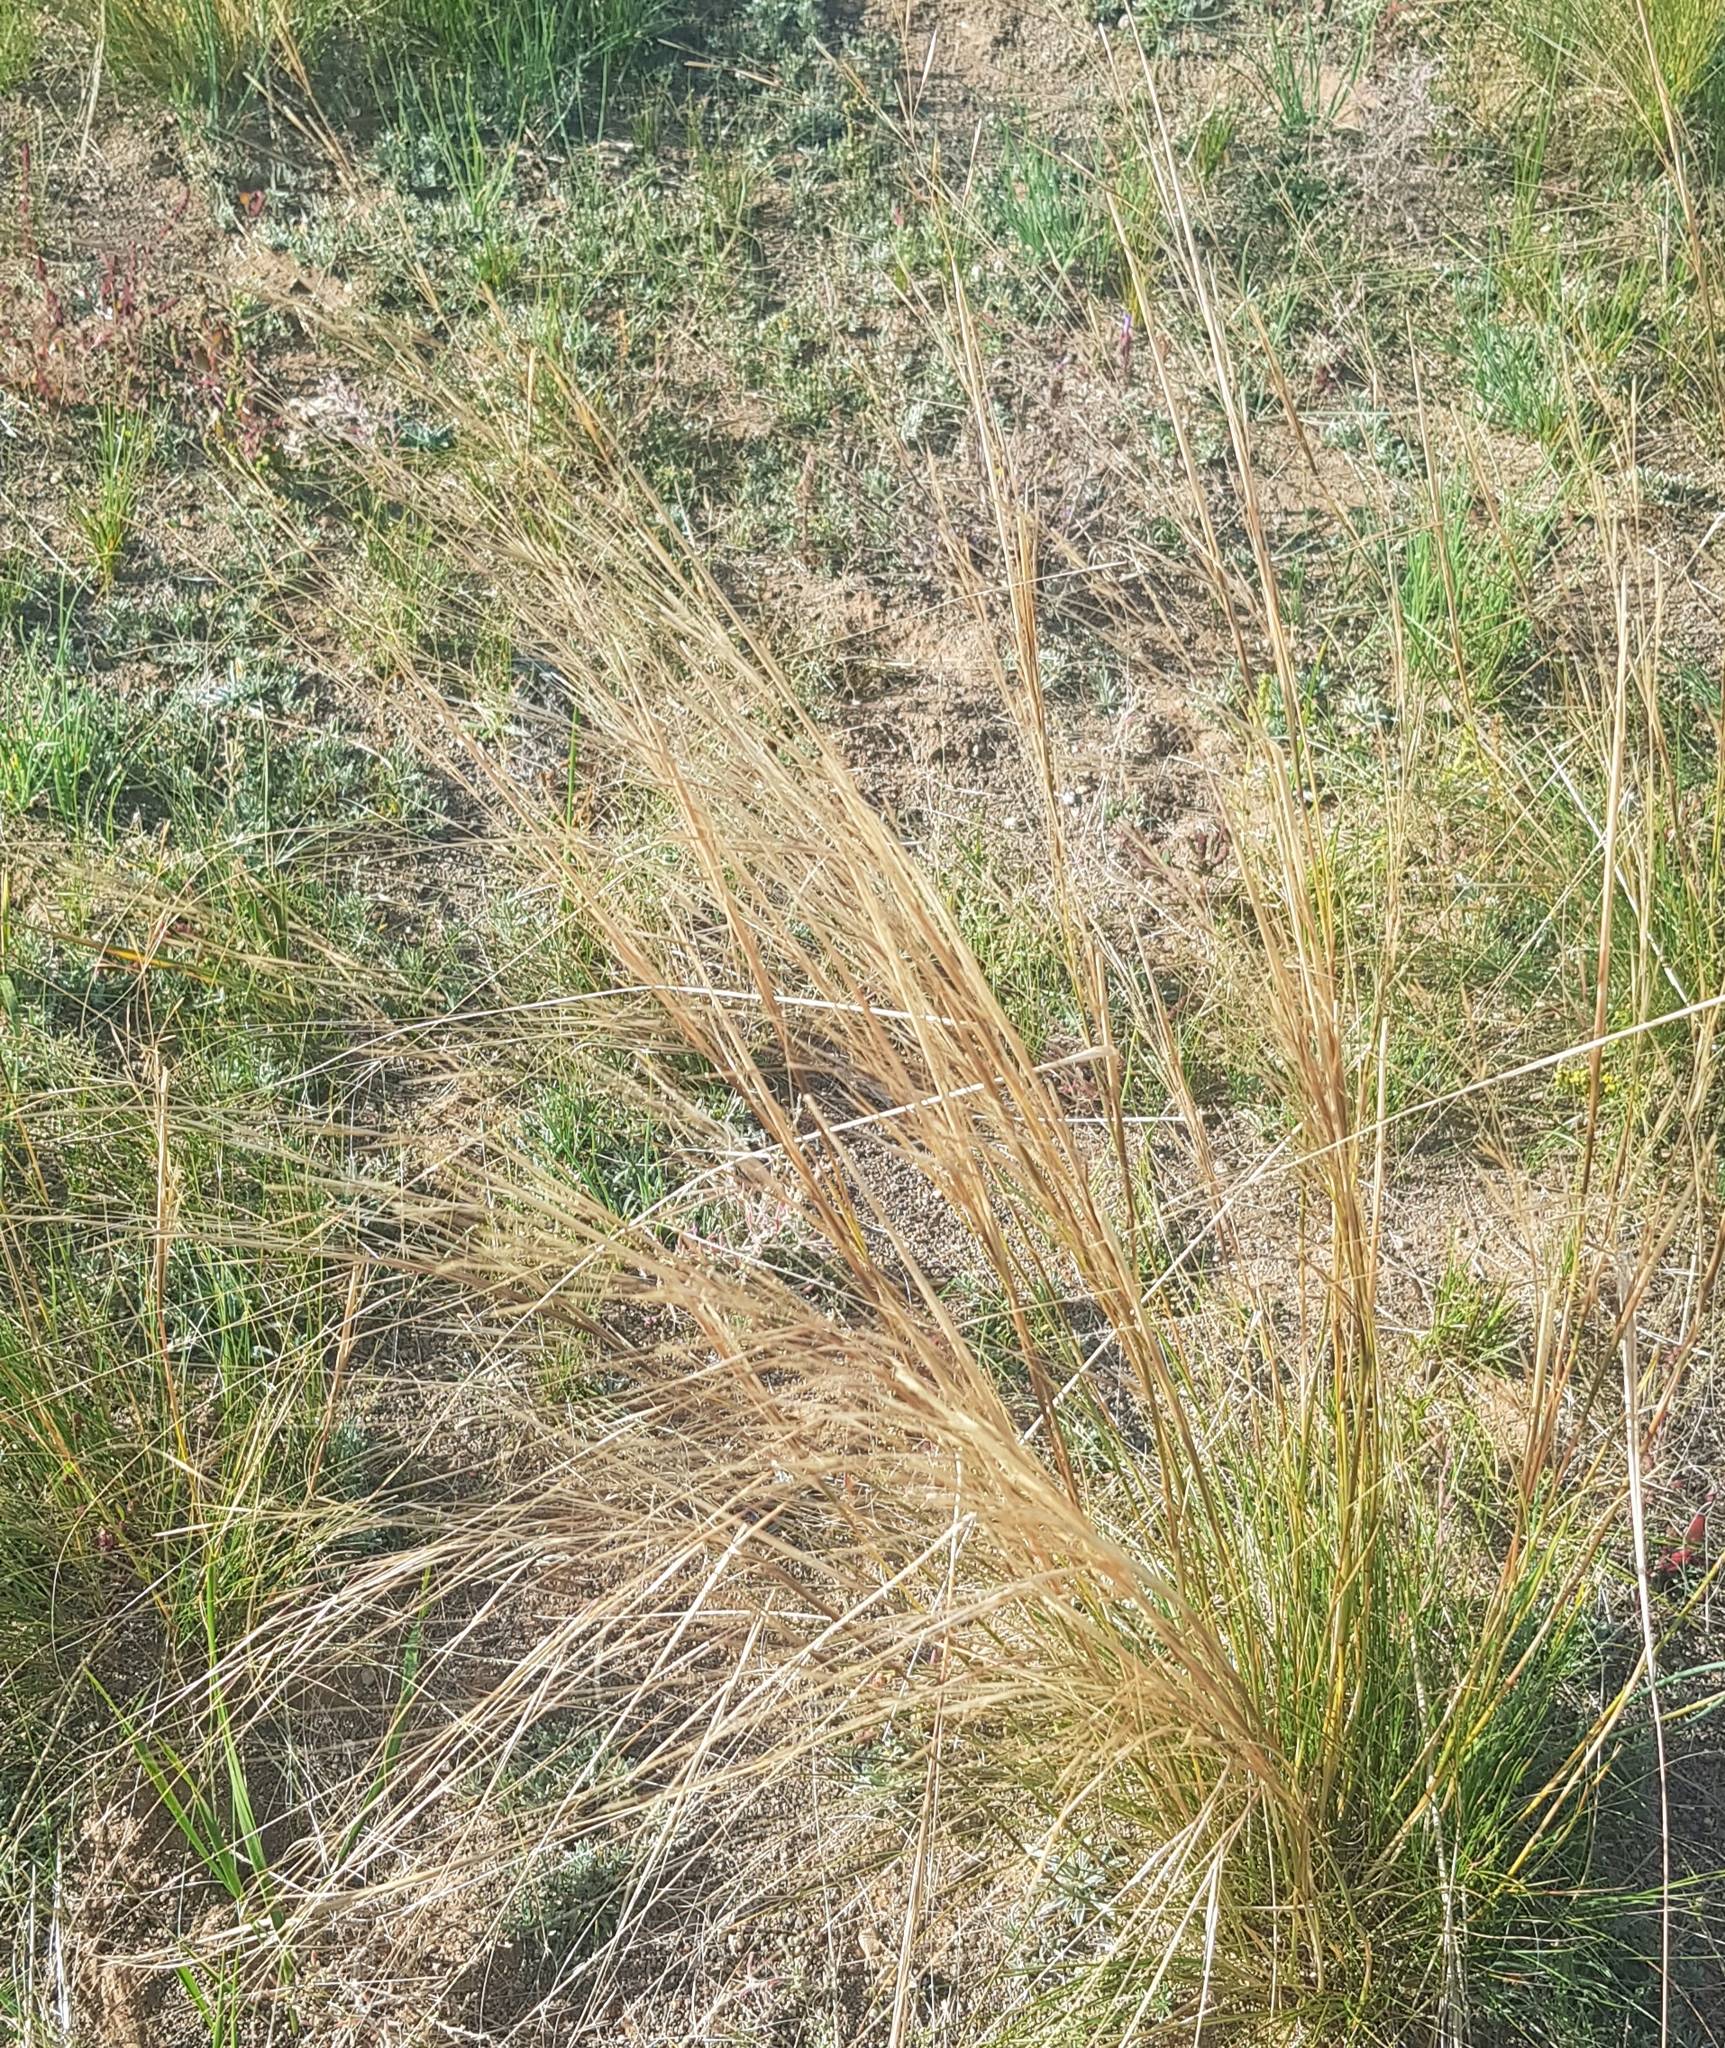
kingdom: Plantae
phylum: Tracheophyta
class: Liliopsida
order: Poales
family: Poaceae
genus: Stipa
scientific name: Stipa krylovii
